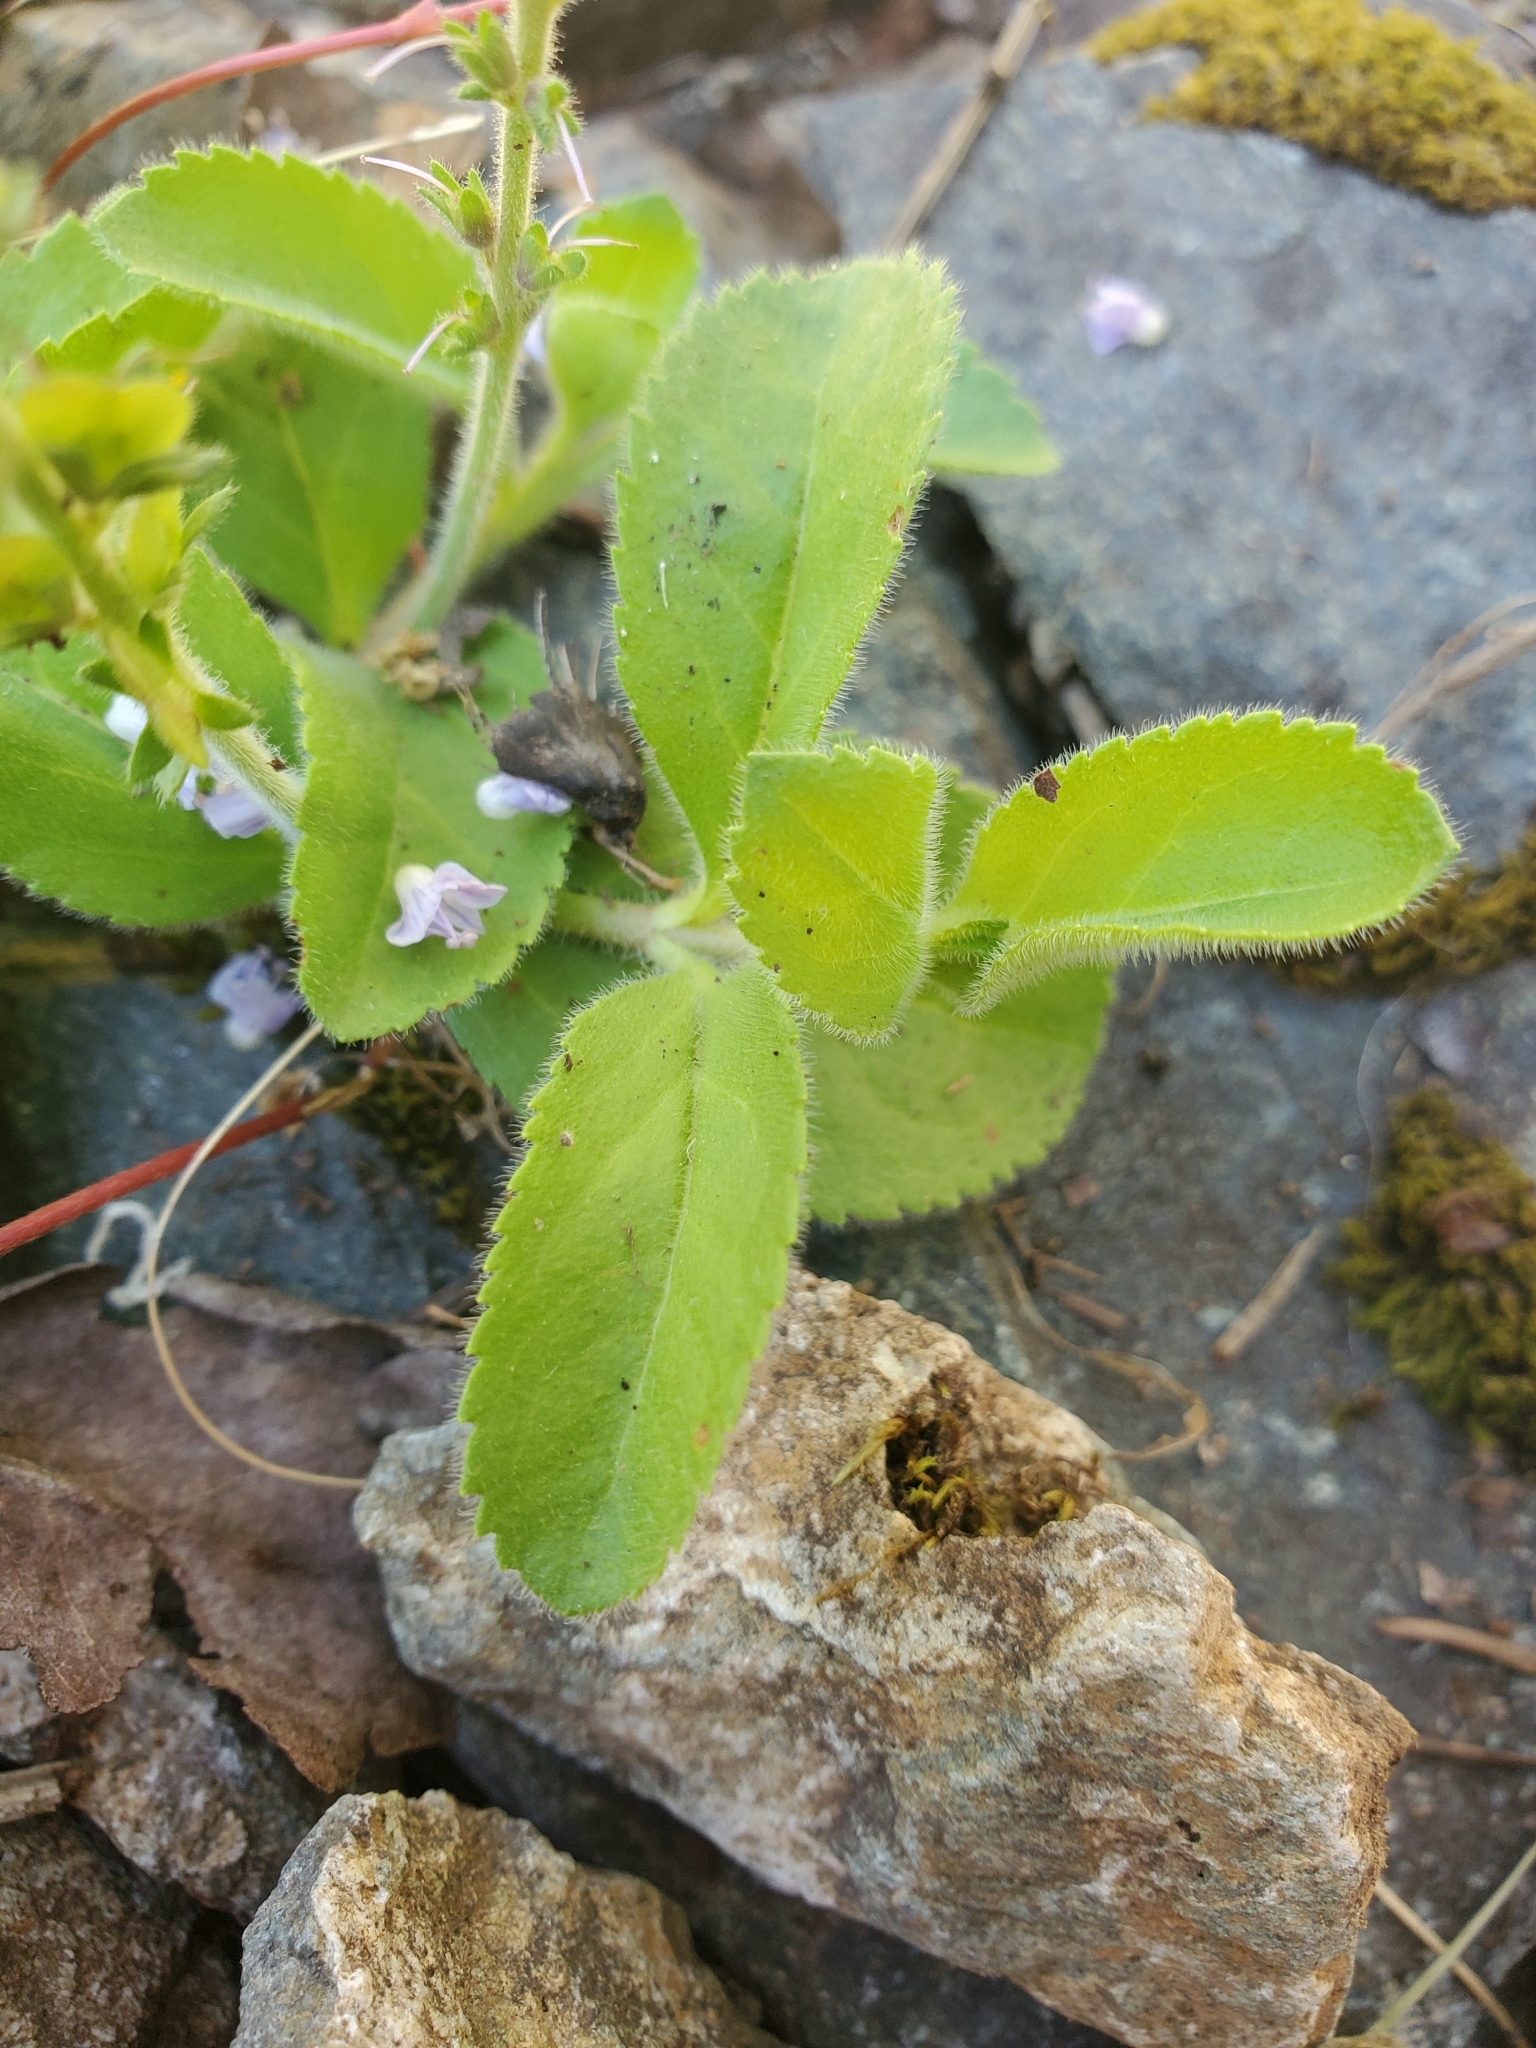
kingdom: Plantae
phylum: Tracheophyta
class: Magnoliopsida
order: Lamiales
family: Plantaginaceae
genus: Veronica
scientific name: Veronica officinalis
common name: Common speedwell
